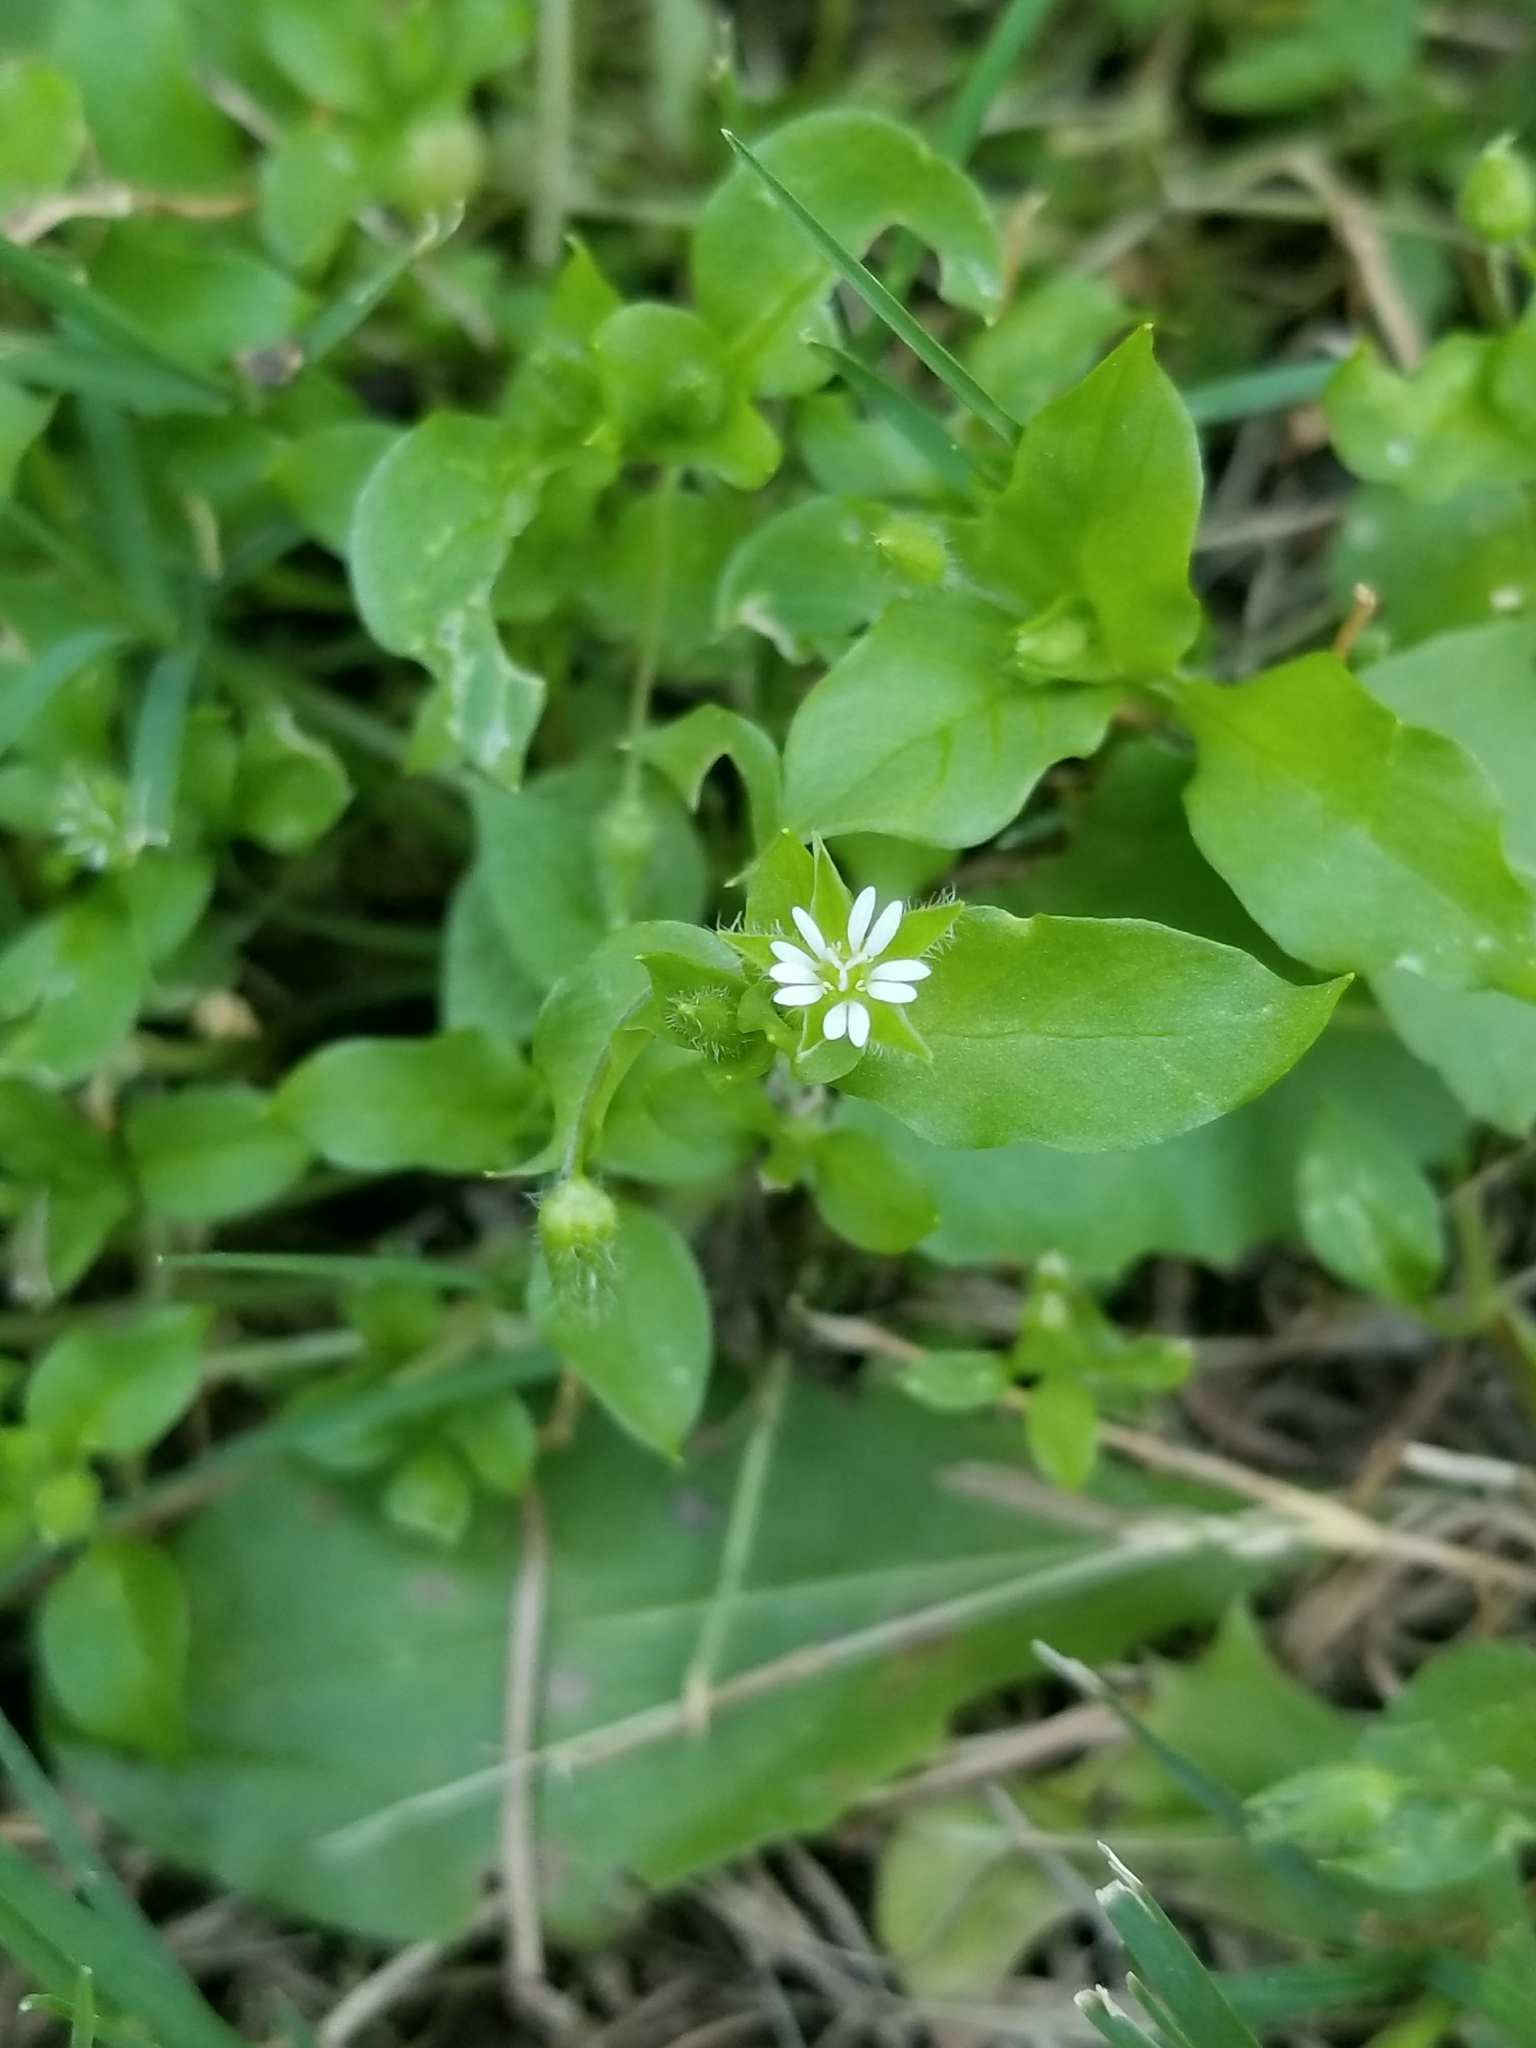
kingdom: Plantae
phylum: Tracheophyta
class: Magnoliopsida
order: Caryophyllales
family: Caryophyllaceae
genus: Stellaria
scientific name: Stellaria media
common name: Common chickweed
